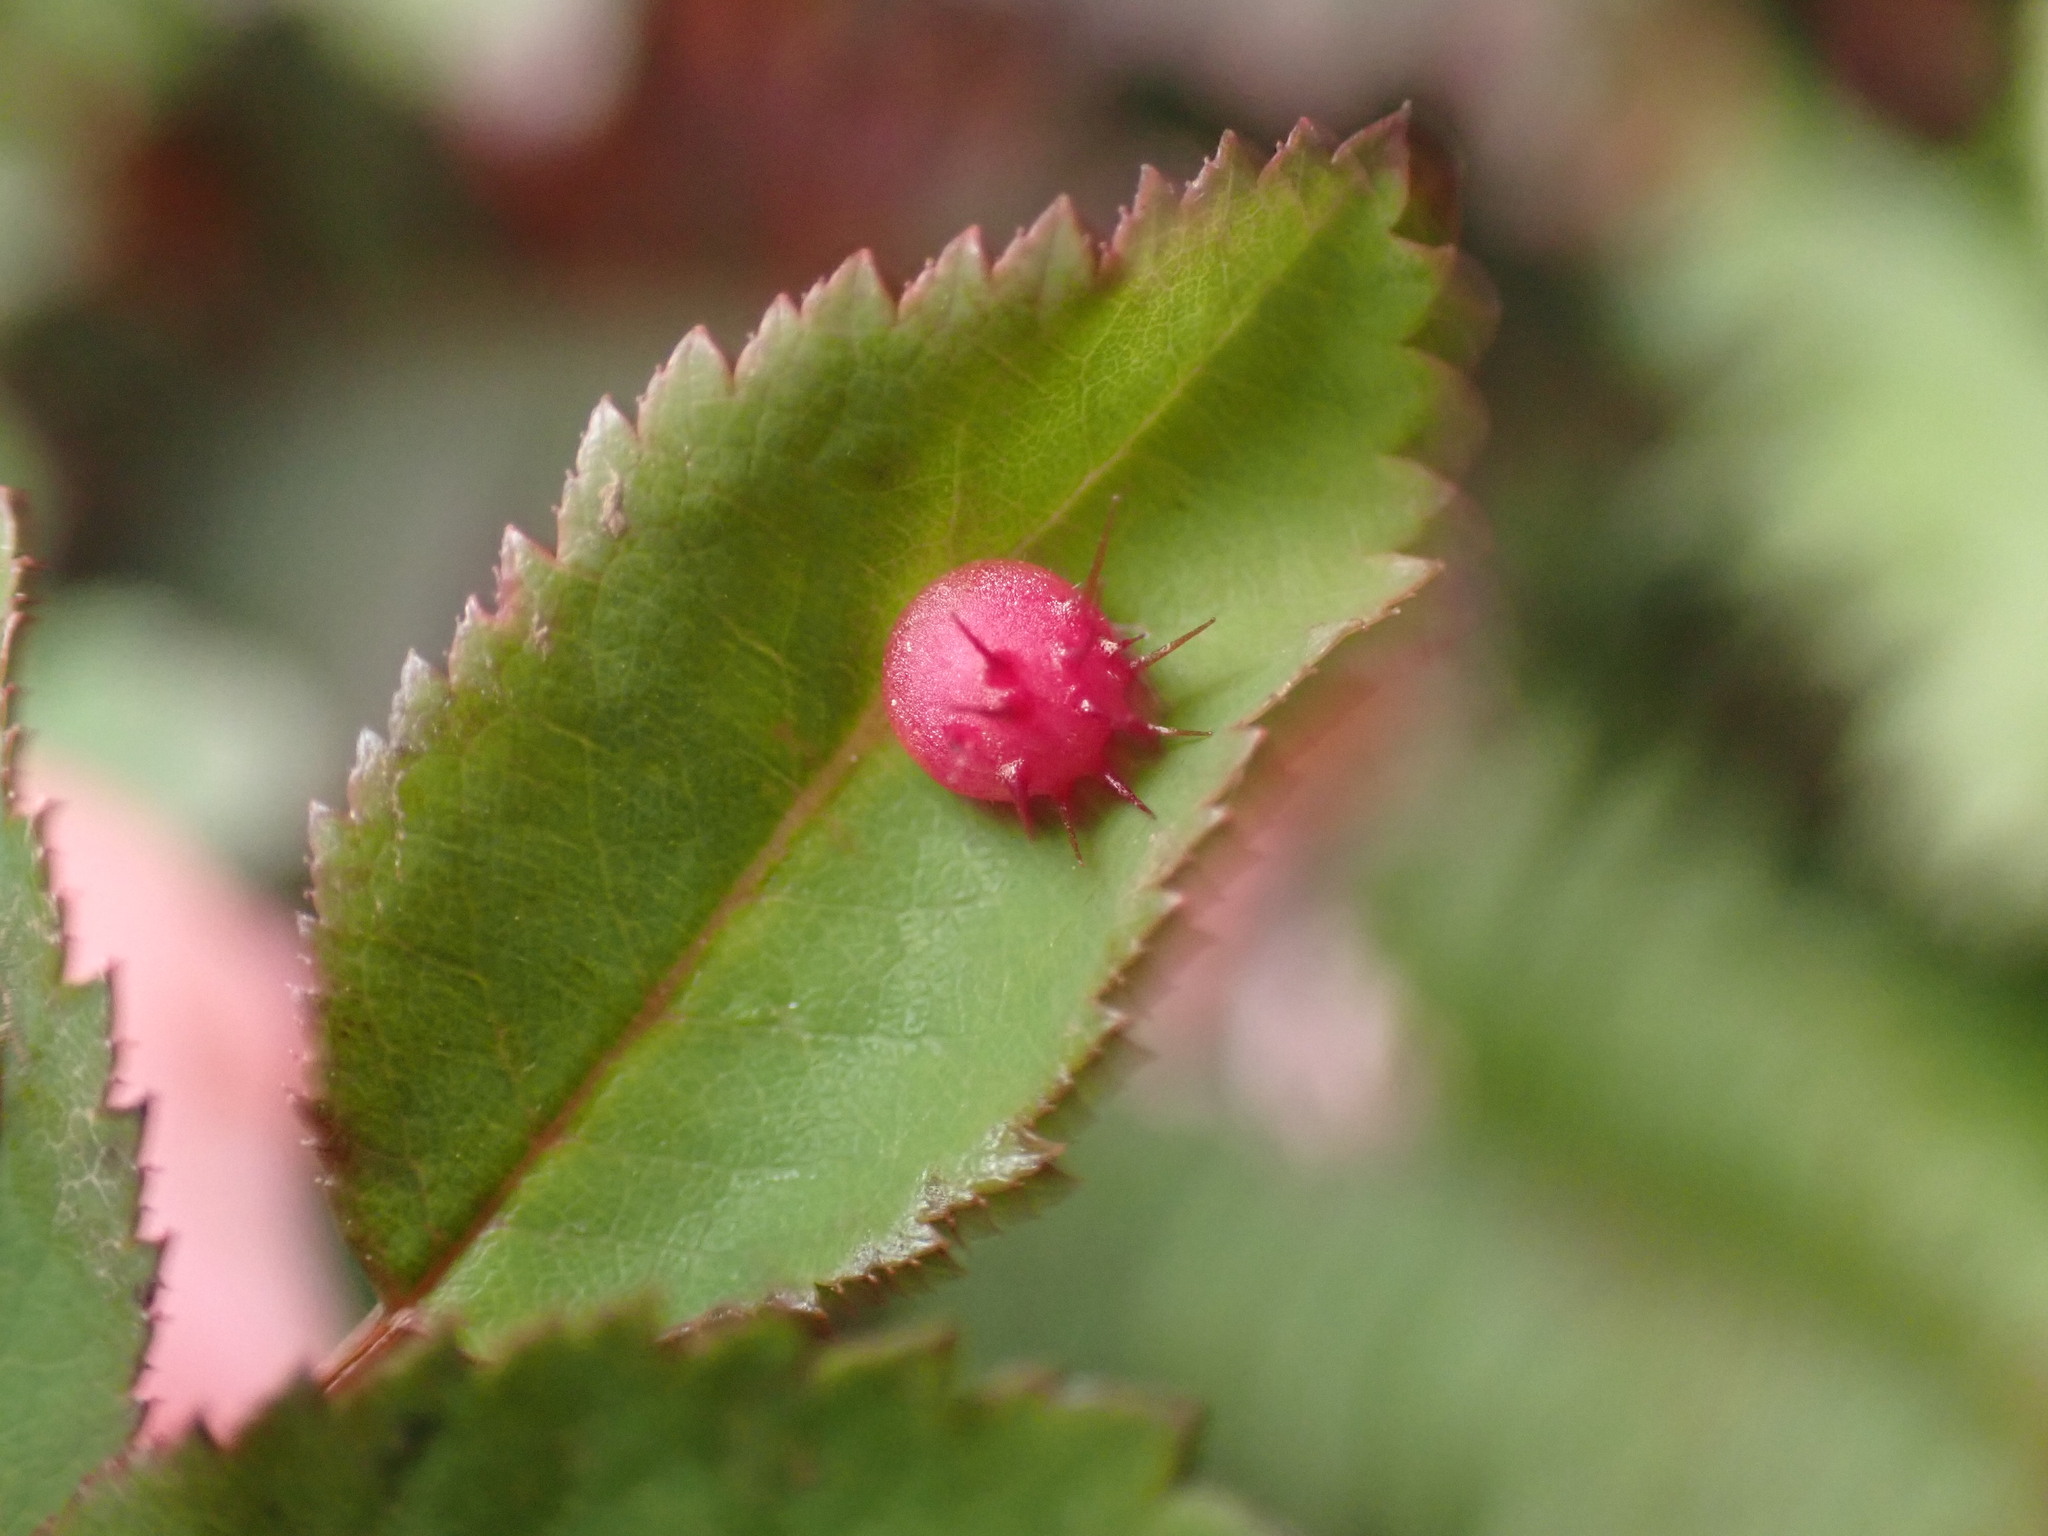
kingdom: Animalia
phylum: Arthropoda
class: Insecta
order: Hymenoptera
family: Cynipidae
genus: Diplolepis
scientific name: Diplolepis polita
